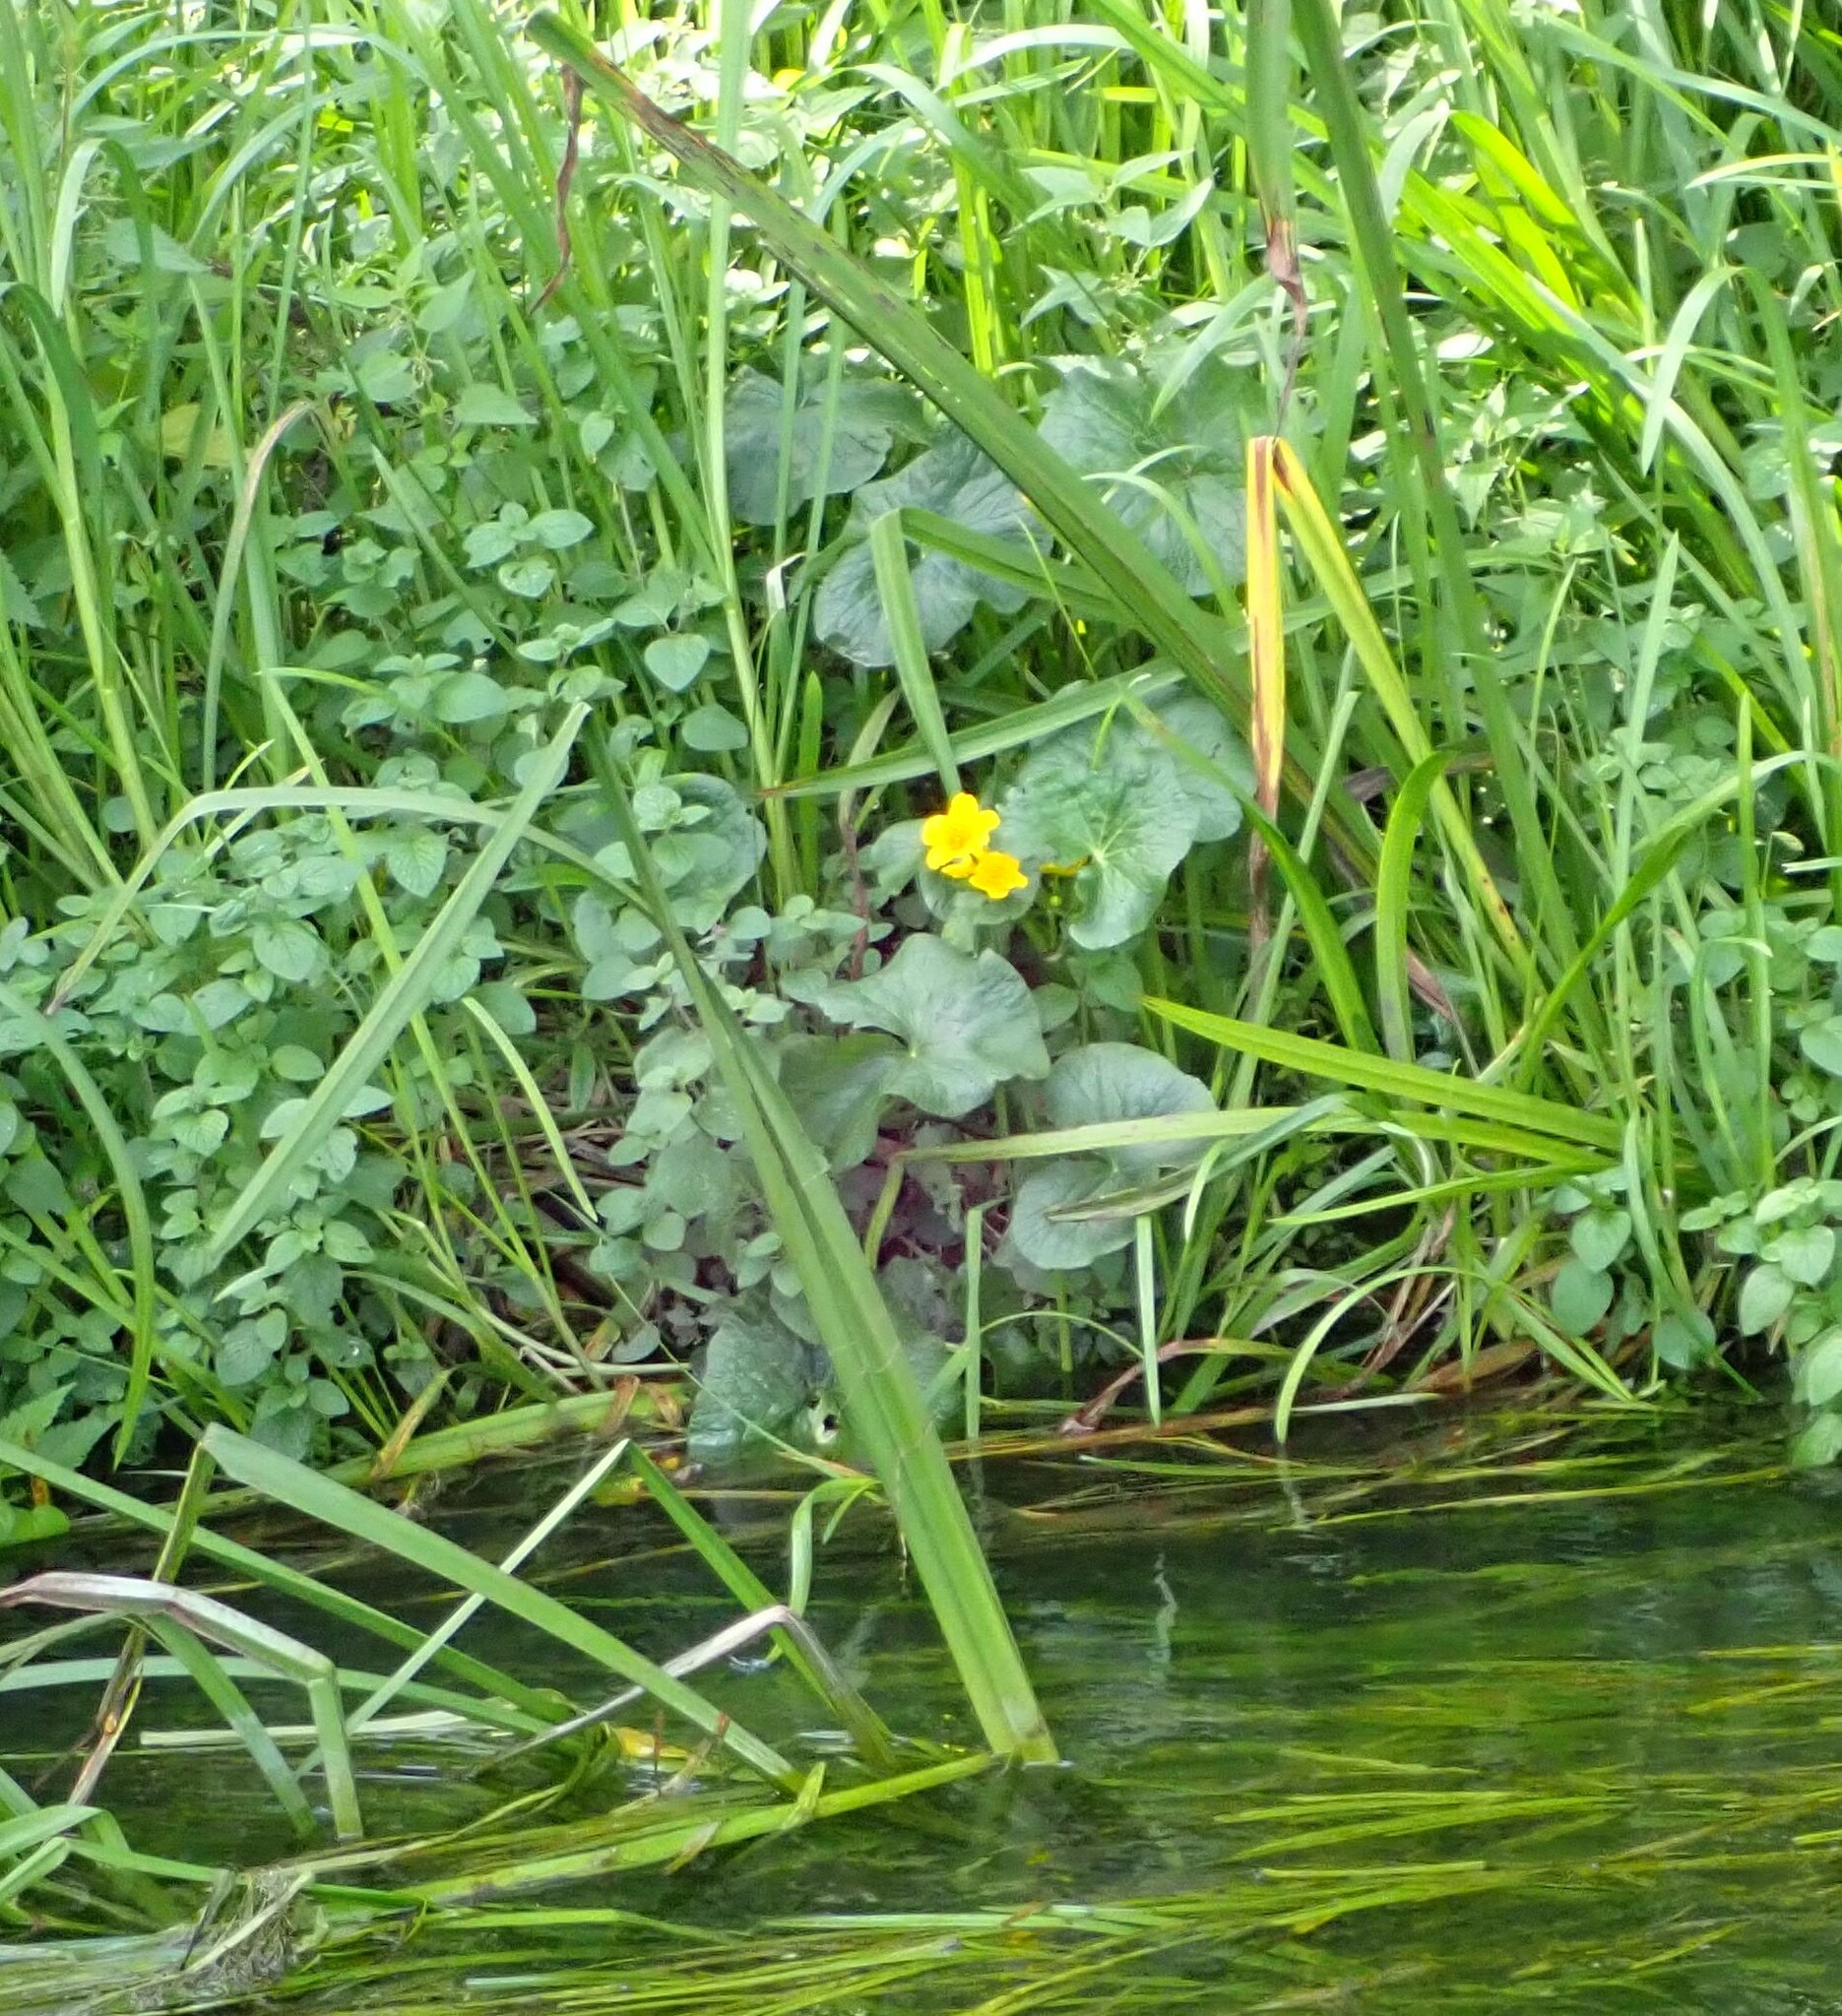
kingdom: Plantae
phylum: Tracheophyta
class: Magnoliopsida
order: Ranunculales
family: Ranunculaceae
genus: Caltha
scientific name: Caltha palustris
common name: Marsh marigold
